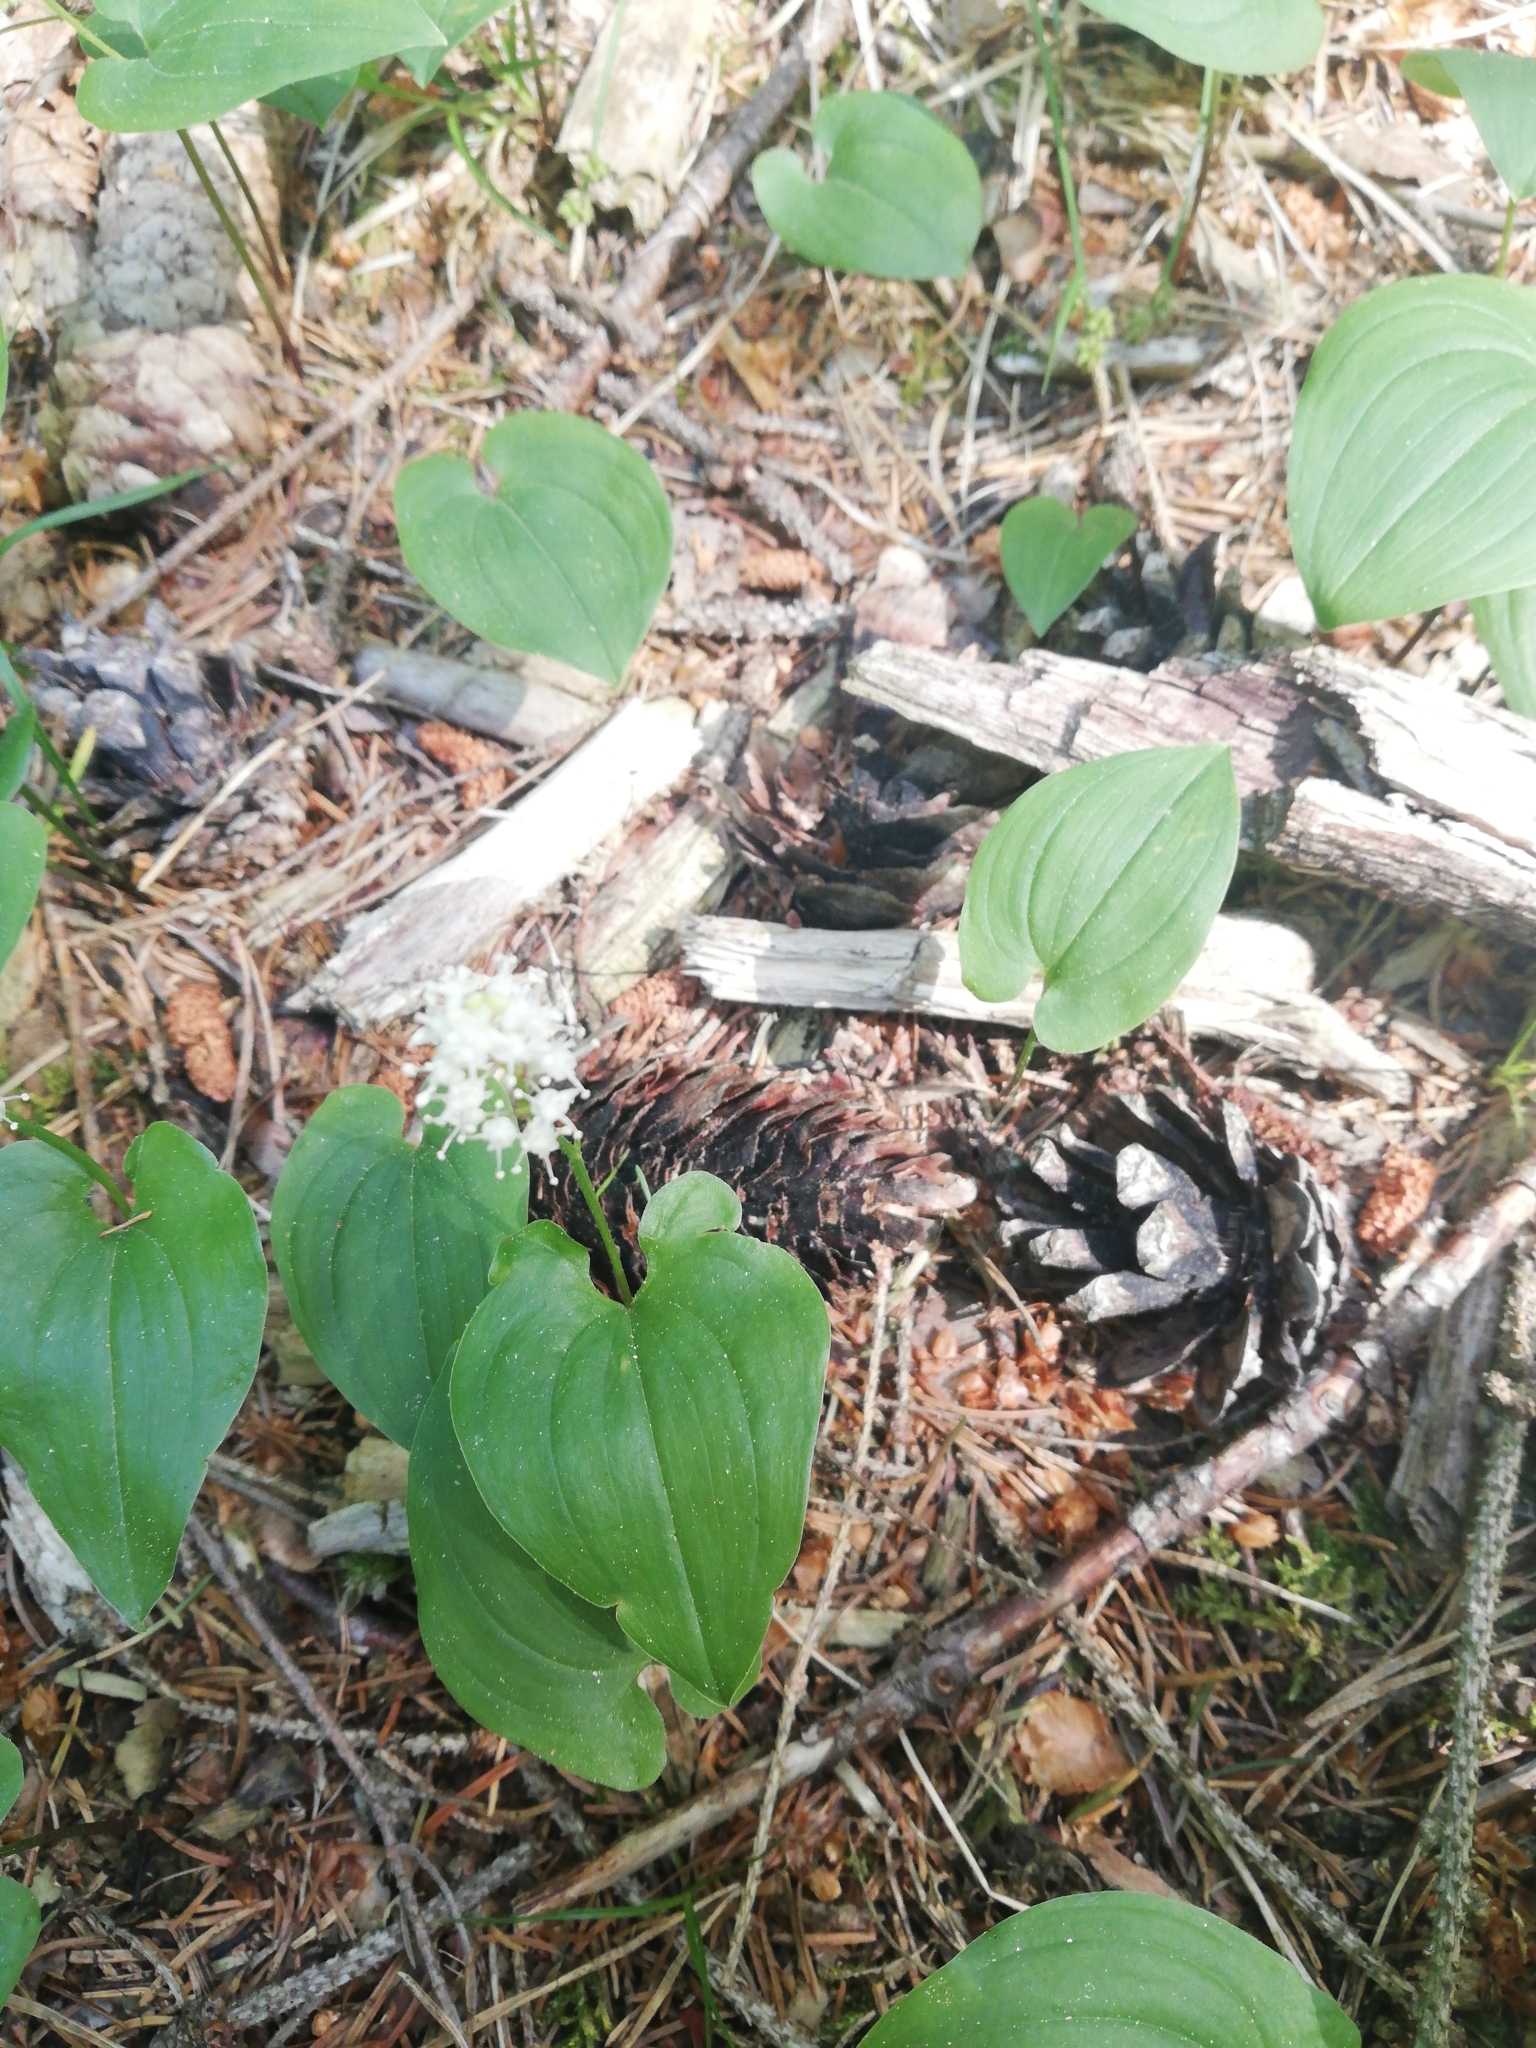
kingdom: Plantae
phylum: Tracheophyta
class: Liliopsida
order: Asparagales
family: Asparagaceae
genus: Maianthemum
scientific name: Maianthemum bifolium
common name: May lily
